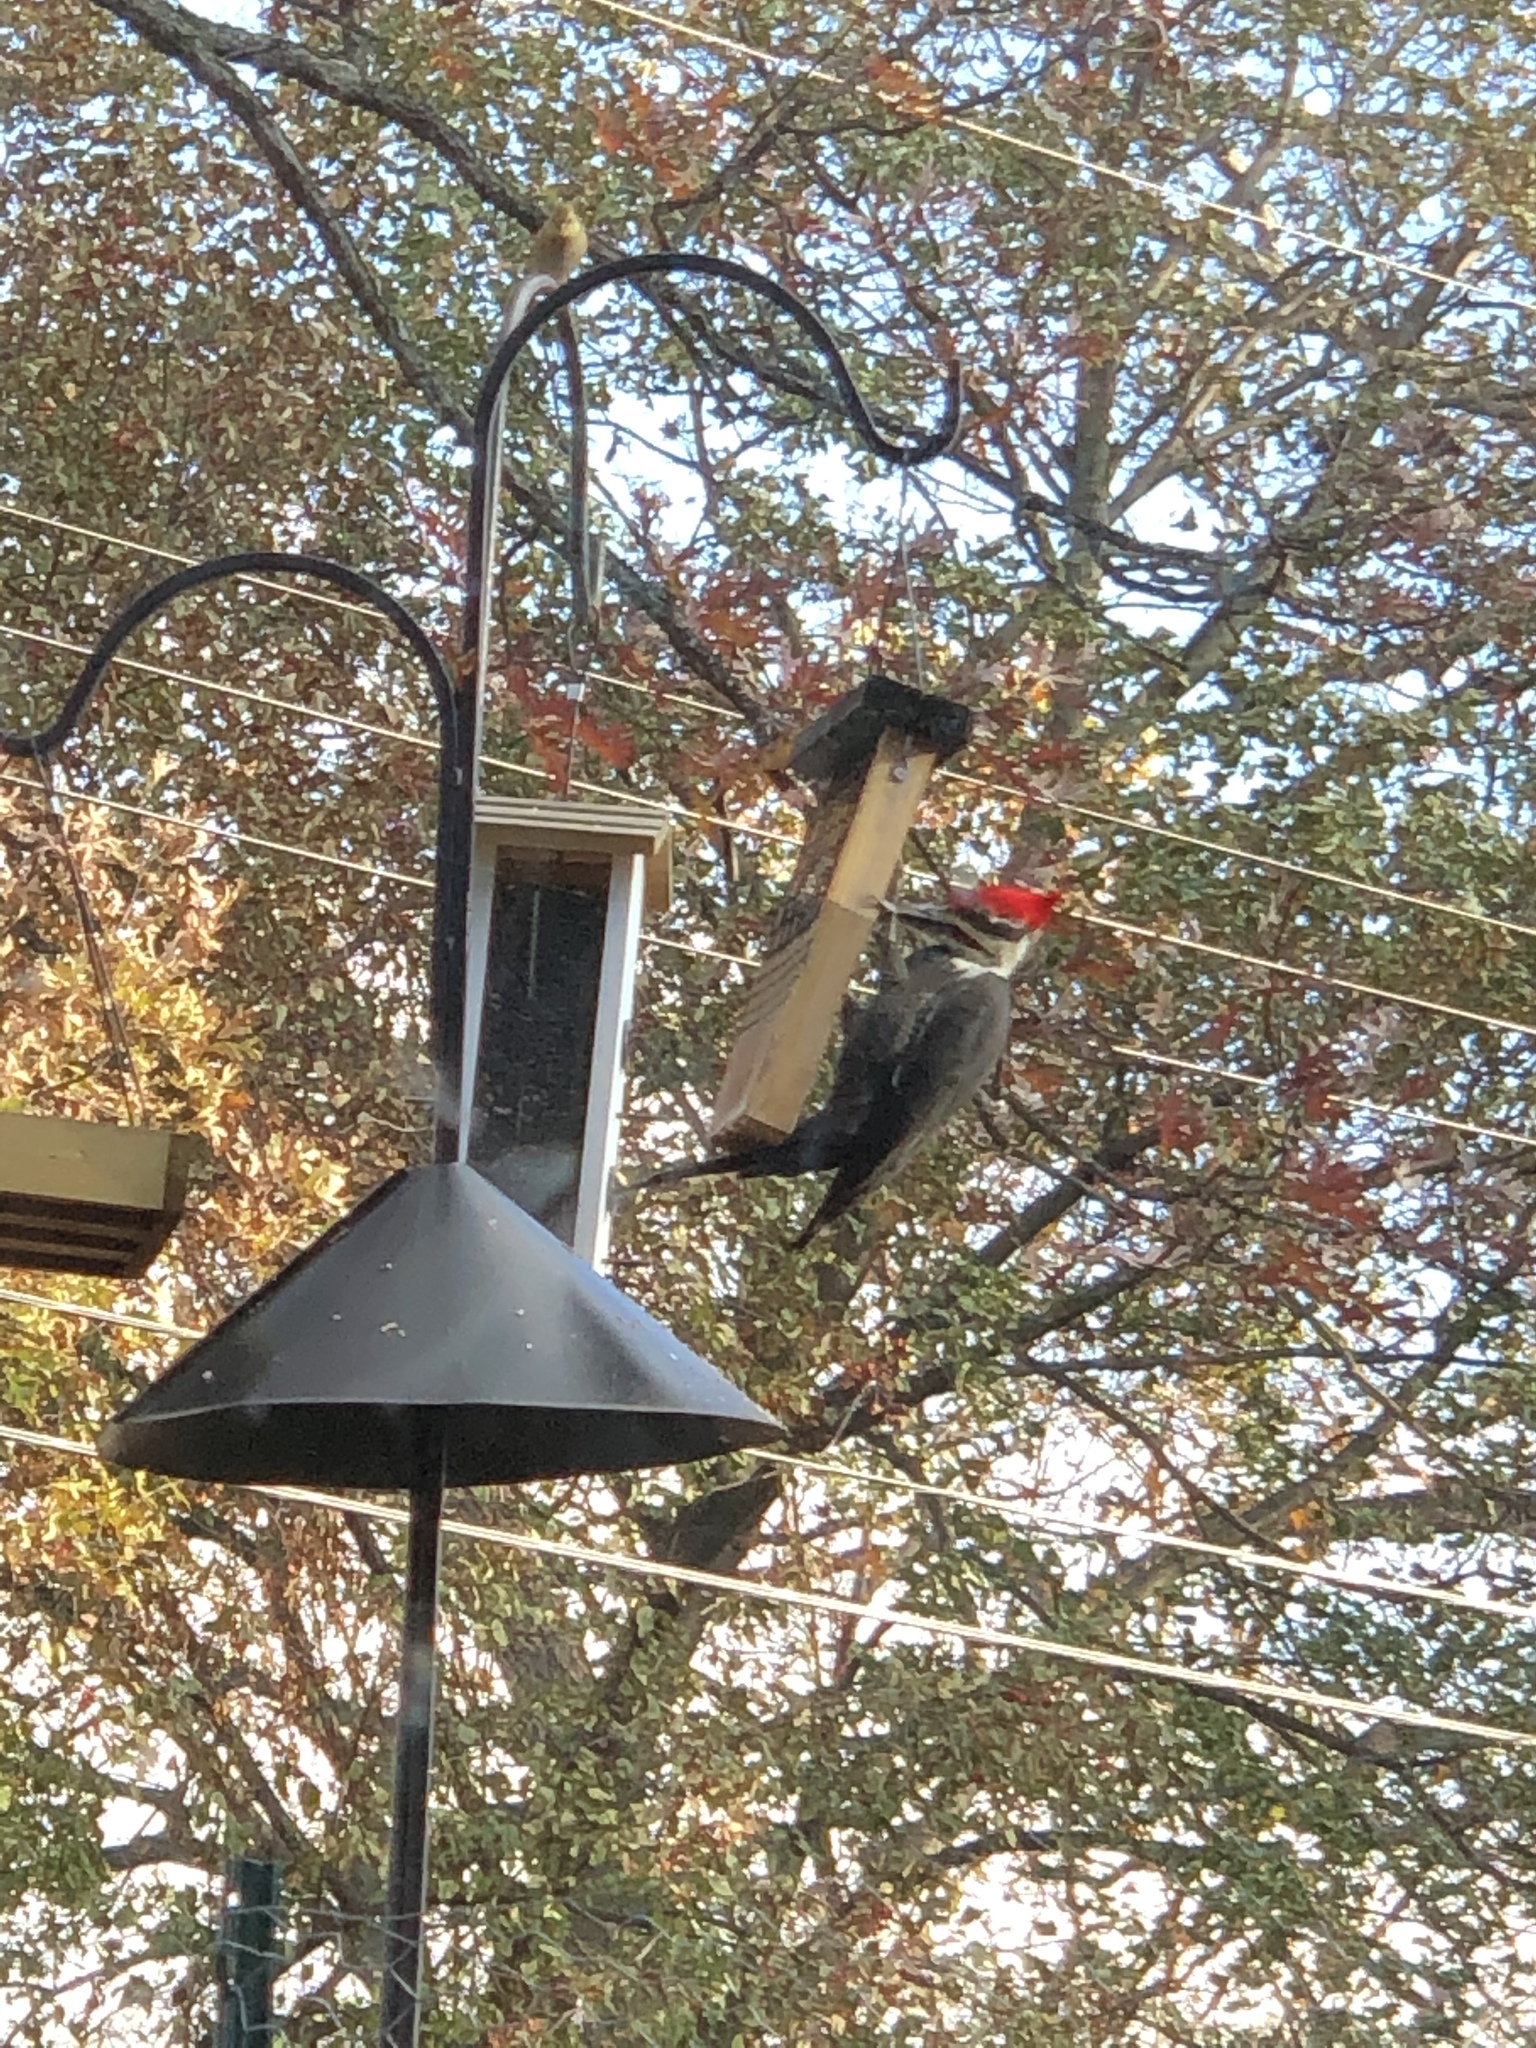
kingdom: Animalia
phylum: Chordata
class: Aves
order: Piciformes
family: Picidae
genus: Dryocopus
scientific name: Dryocopus pileatus
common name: Pileated woodpecker
